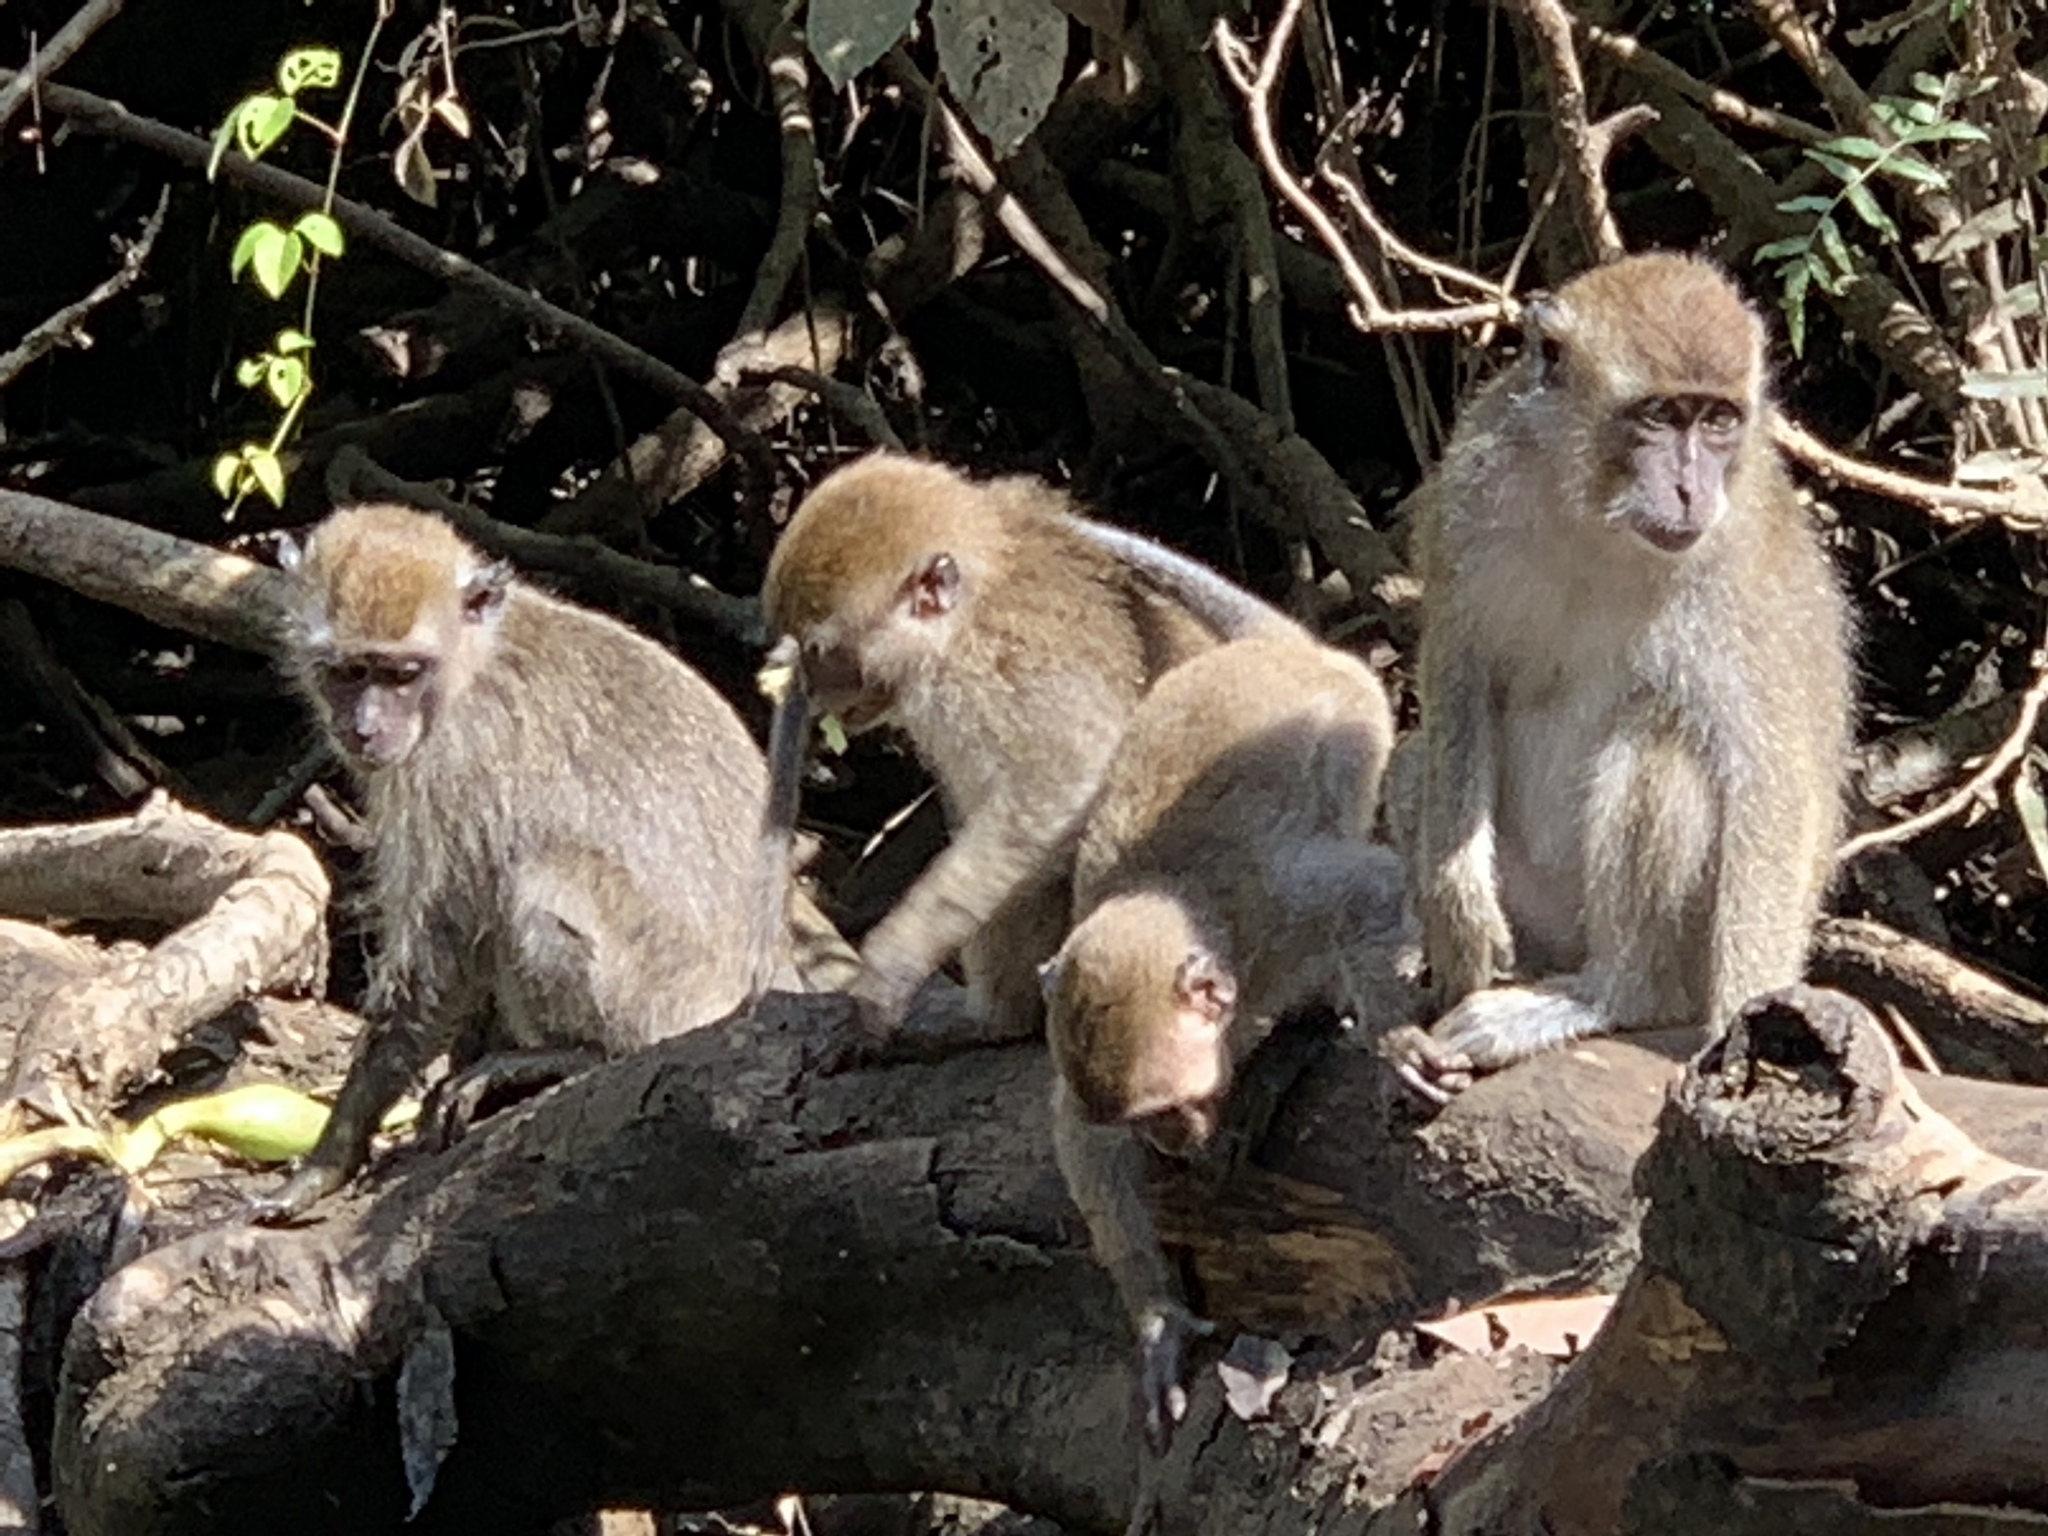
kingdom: Animalia
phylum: Chordata
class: Mammalia
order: Primates
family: Cercopithecidae
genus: Macaca
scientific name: Macaca fascicularis
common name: Crab-eating macaque
